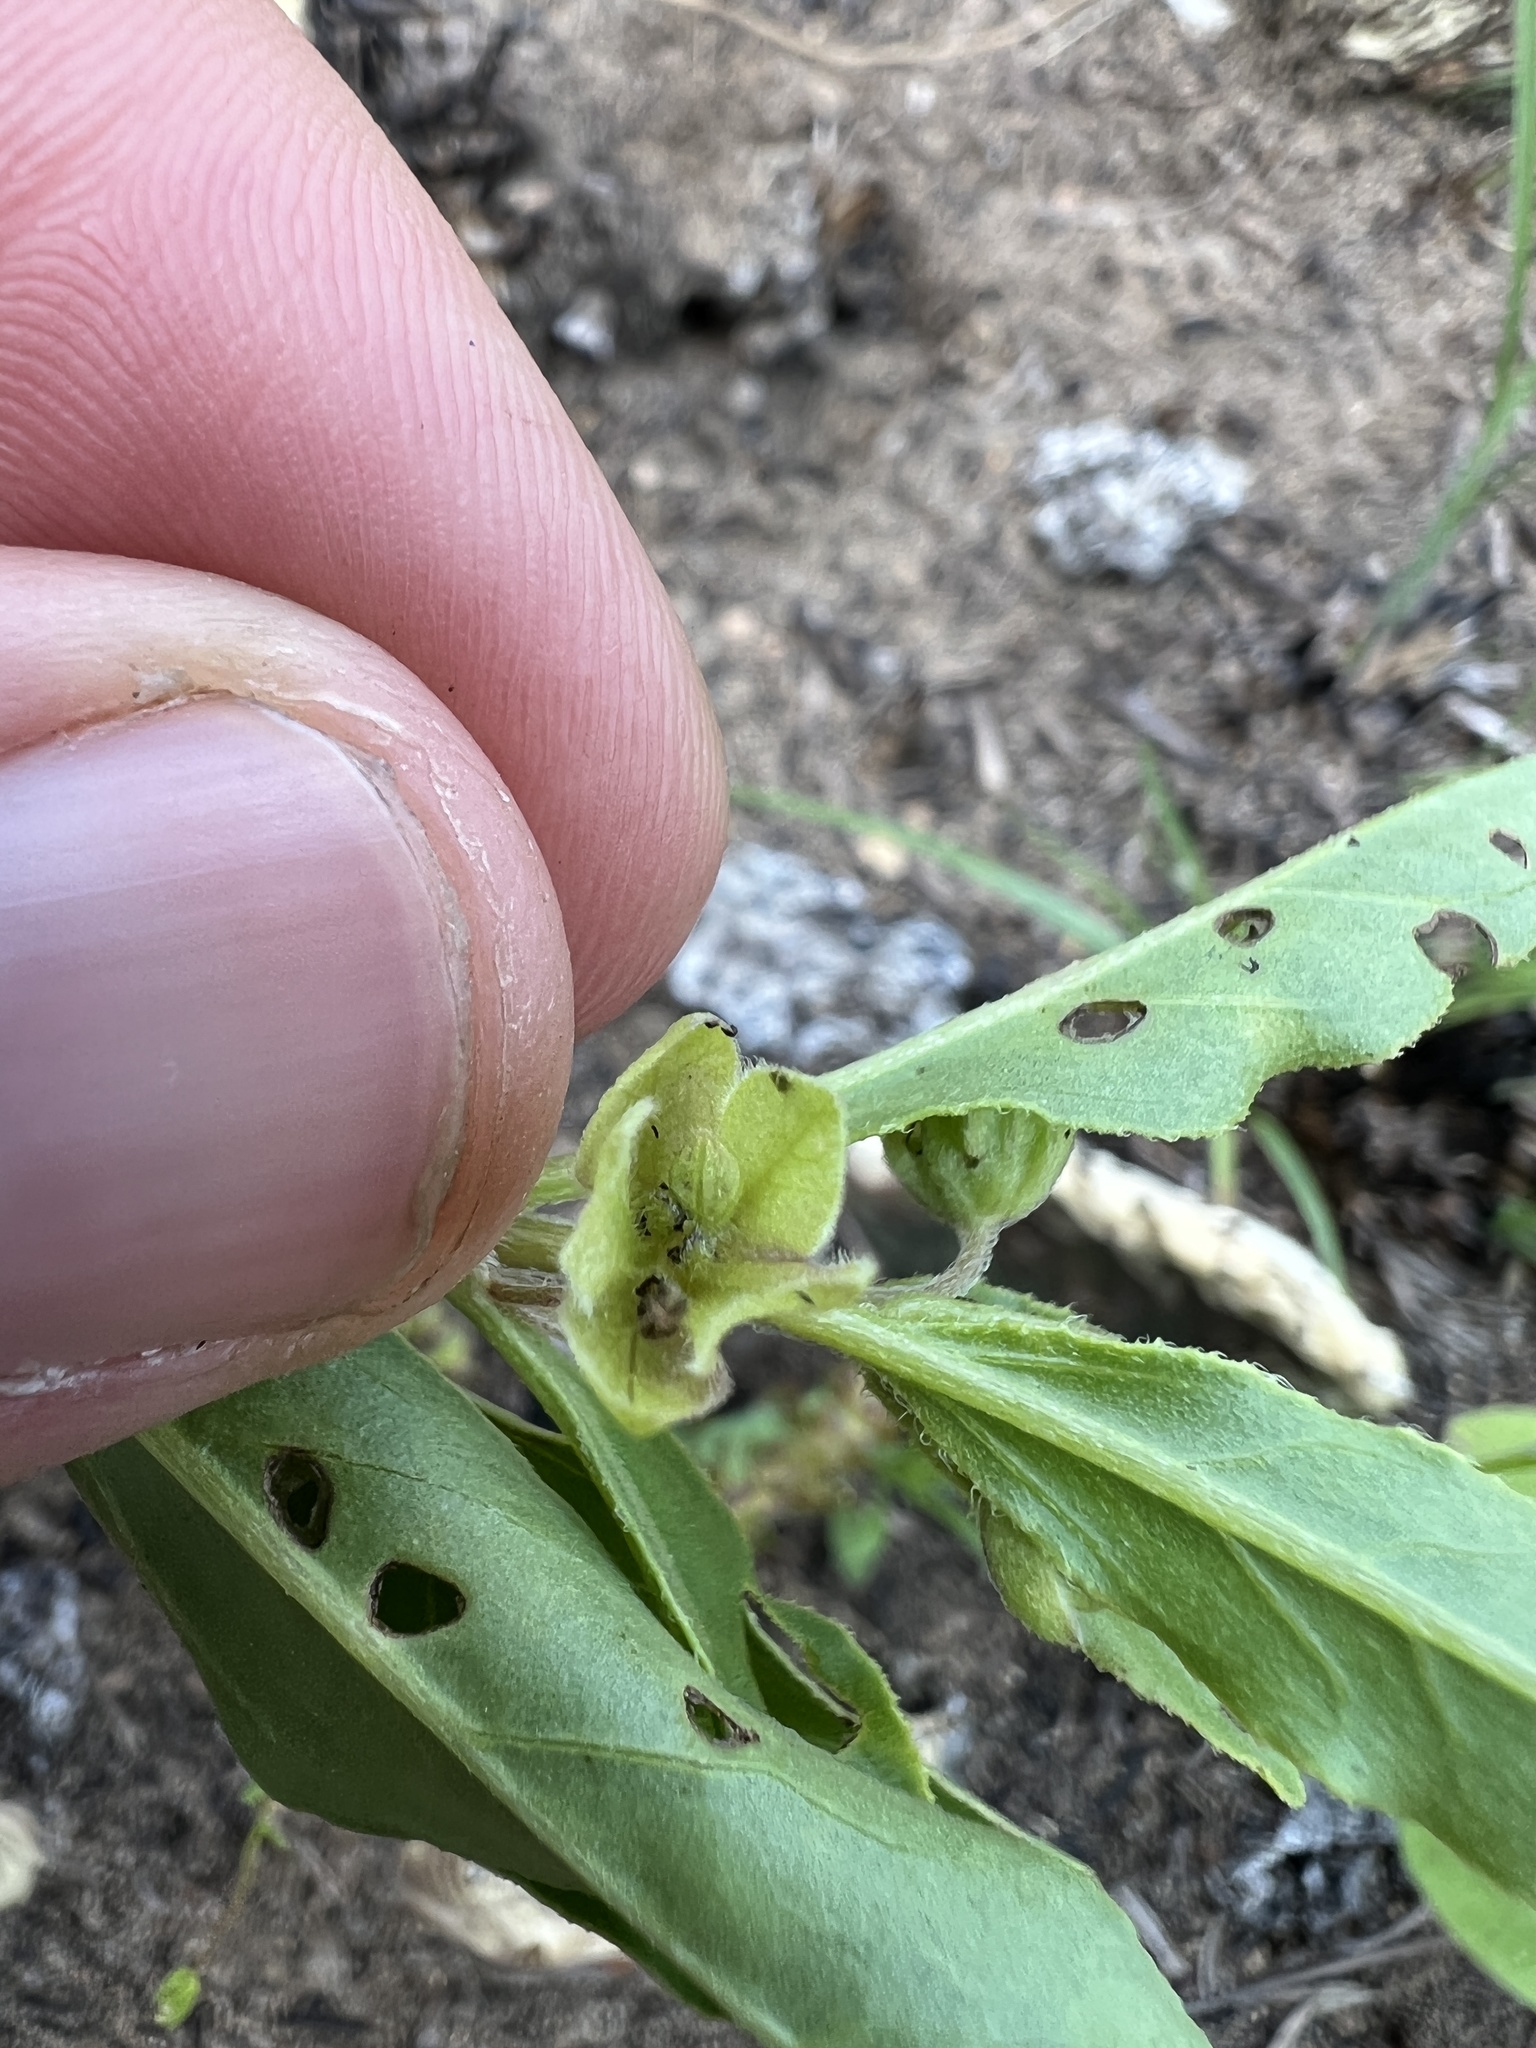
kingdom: Plantae
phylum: Tracheophyta
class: Magnoliopsida
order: Caryophyllales
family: Nyctaginaceae
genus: Mirabilis
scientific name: Mirabilis albida
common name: Hairy four-o'clock
